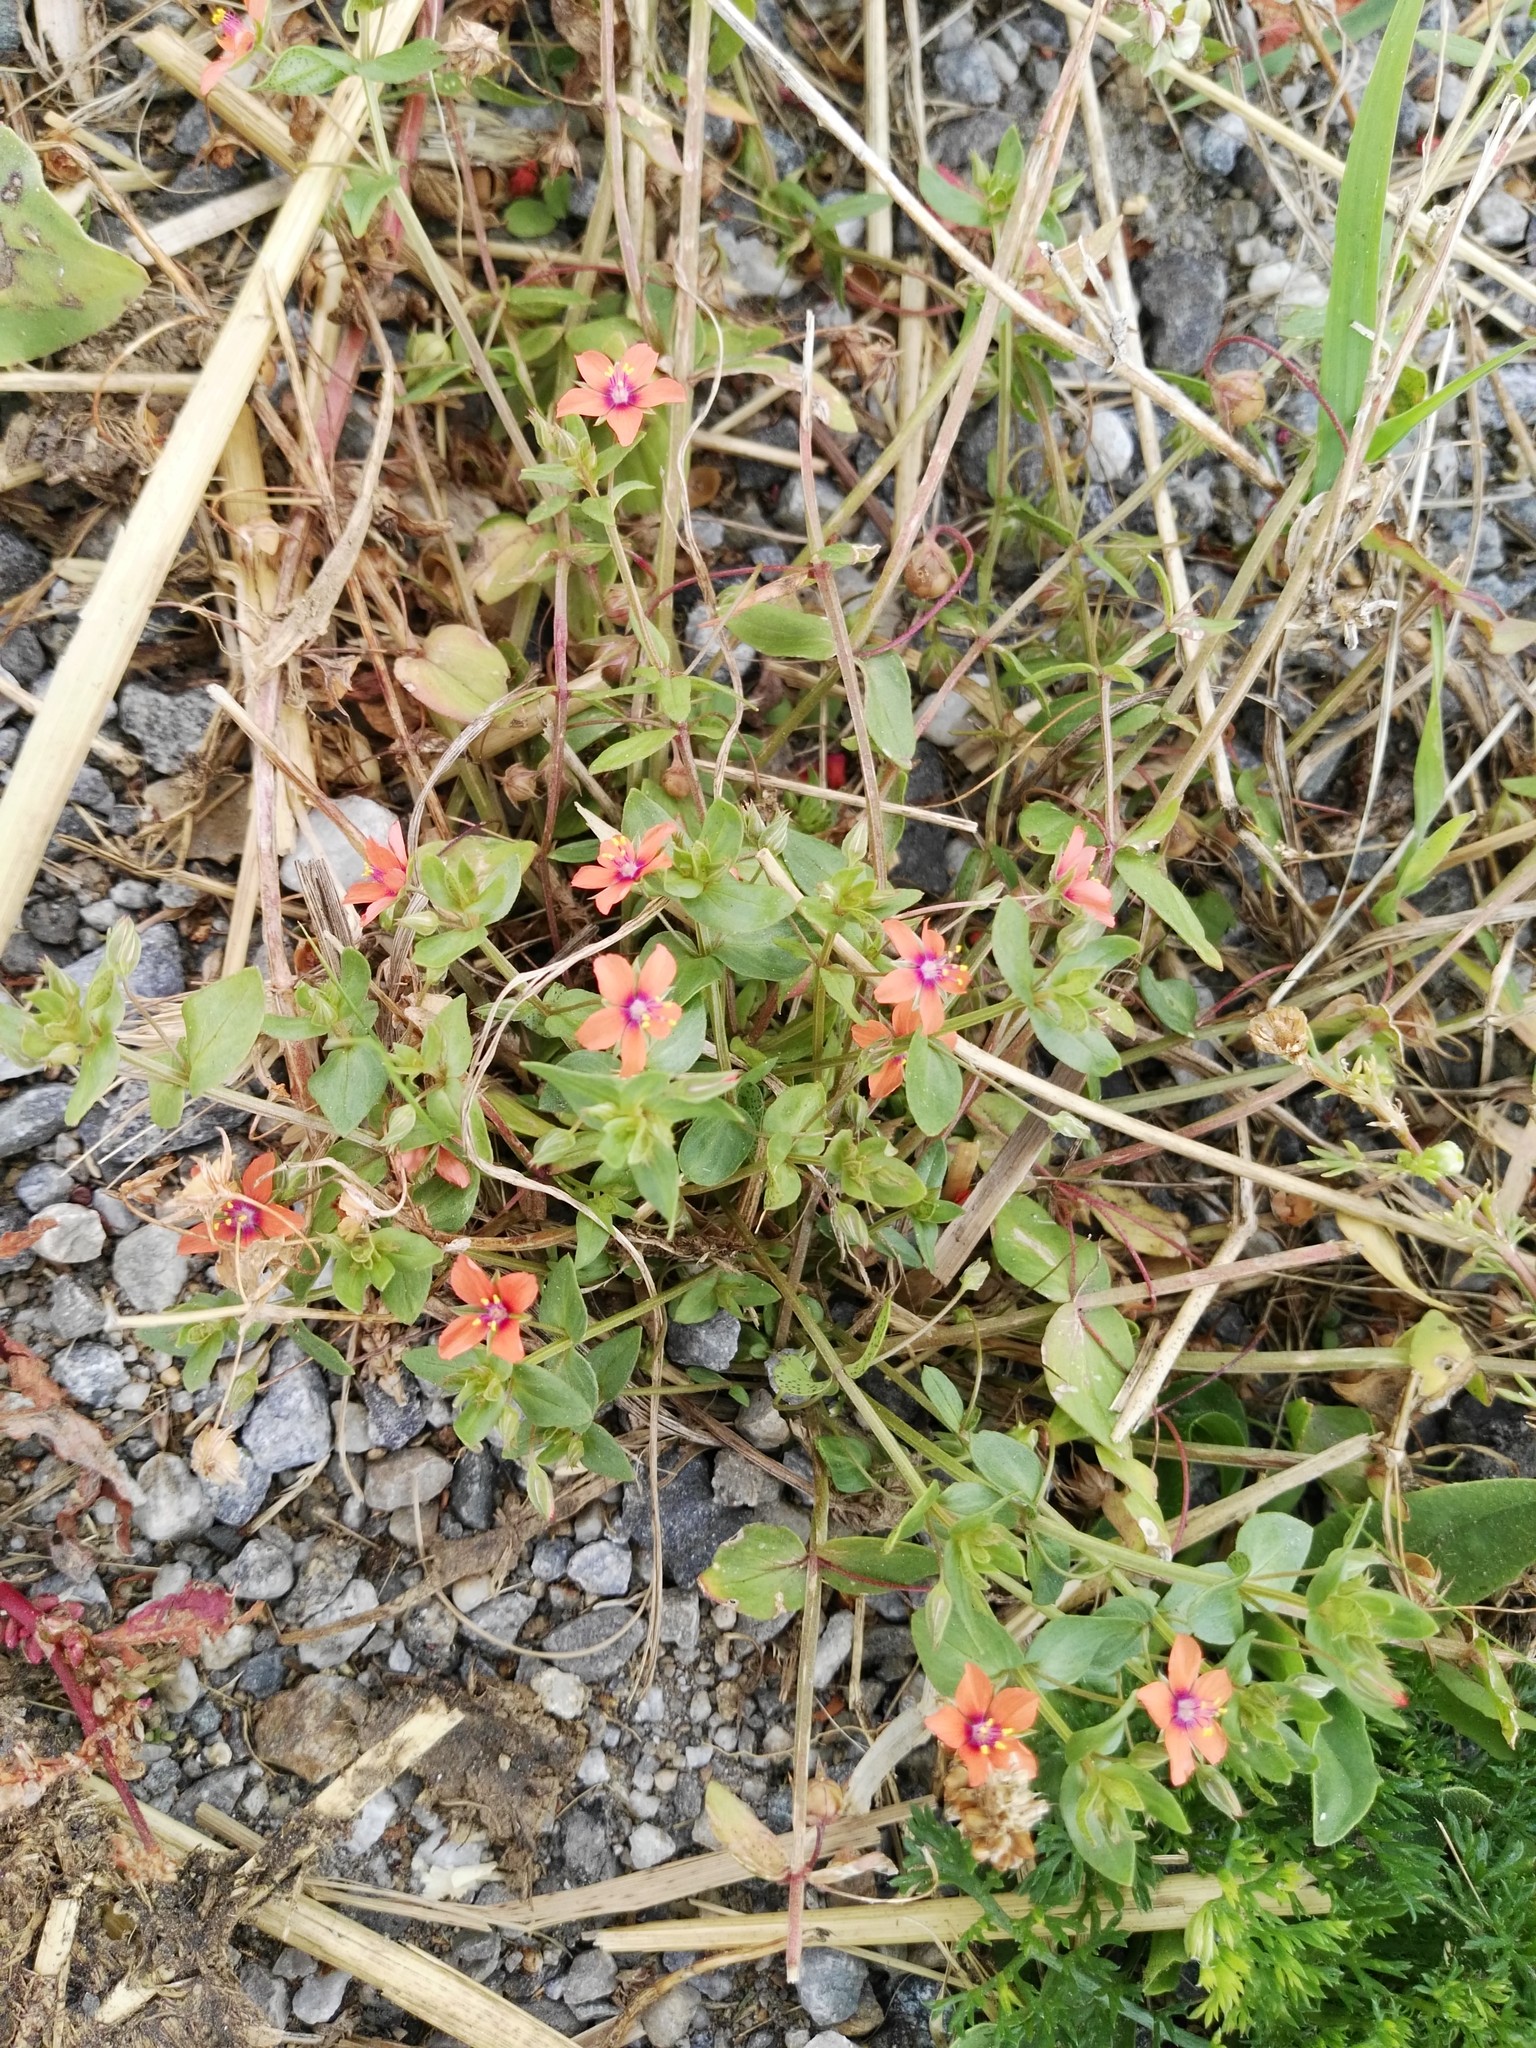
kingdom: Plantae
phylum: Tracheophyta
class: Magnoliopsida
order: Ericales
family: Primulaceae
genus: Lysimachia
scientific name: Lysimachia arvensis
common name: Scarlet pimpernel
